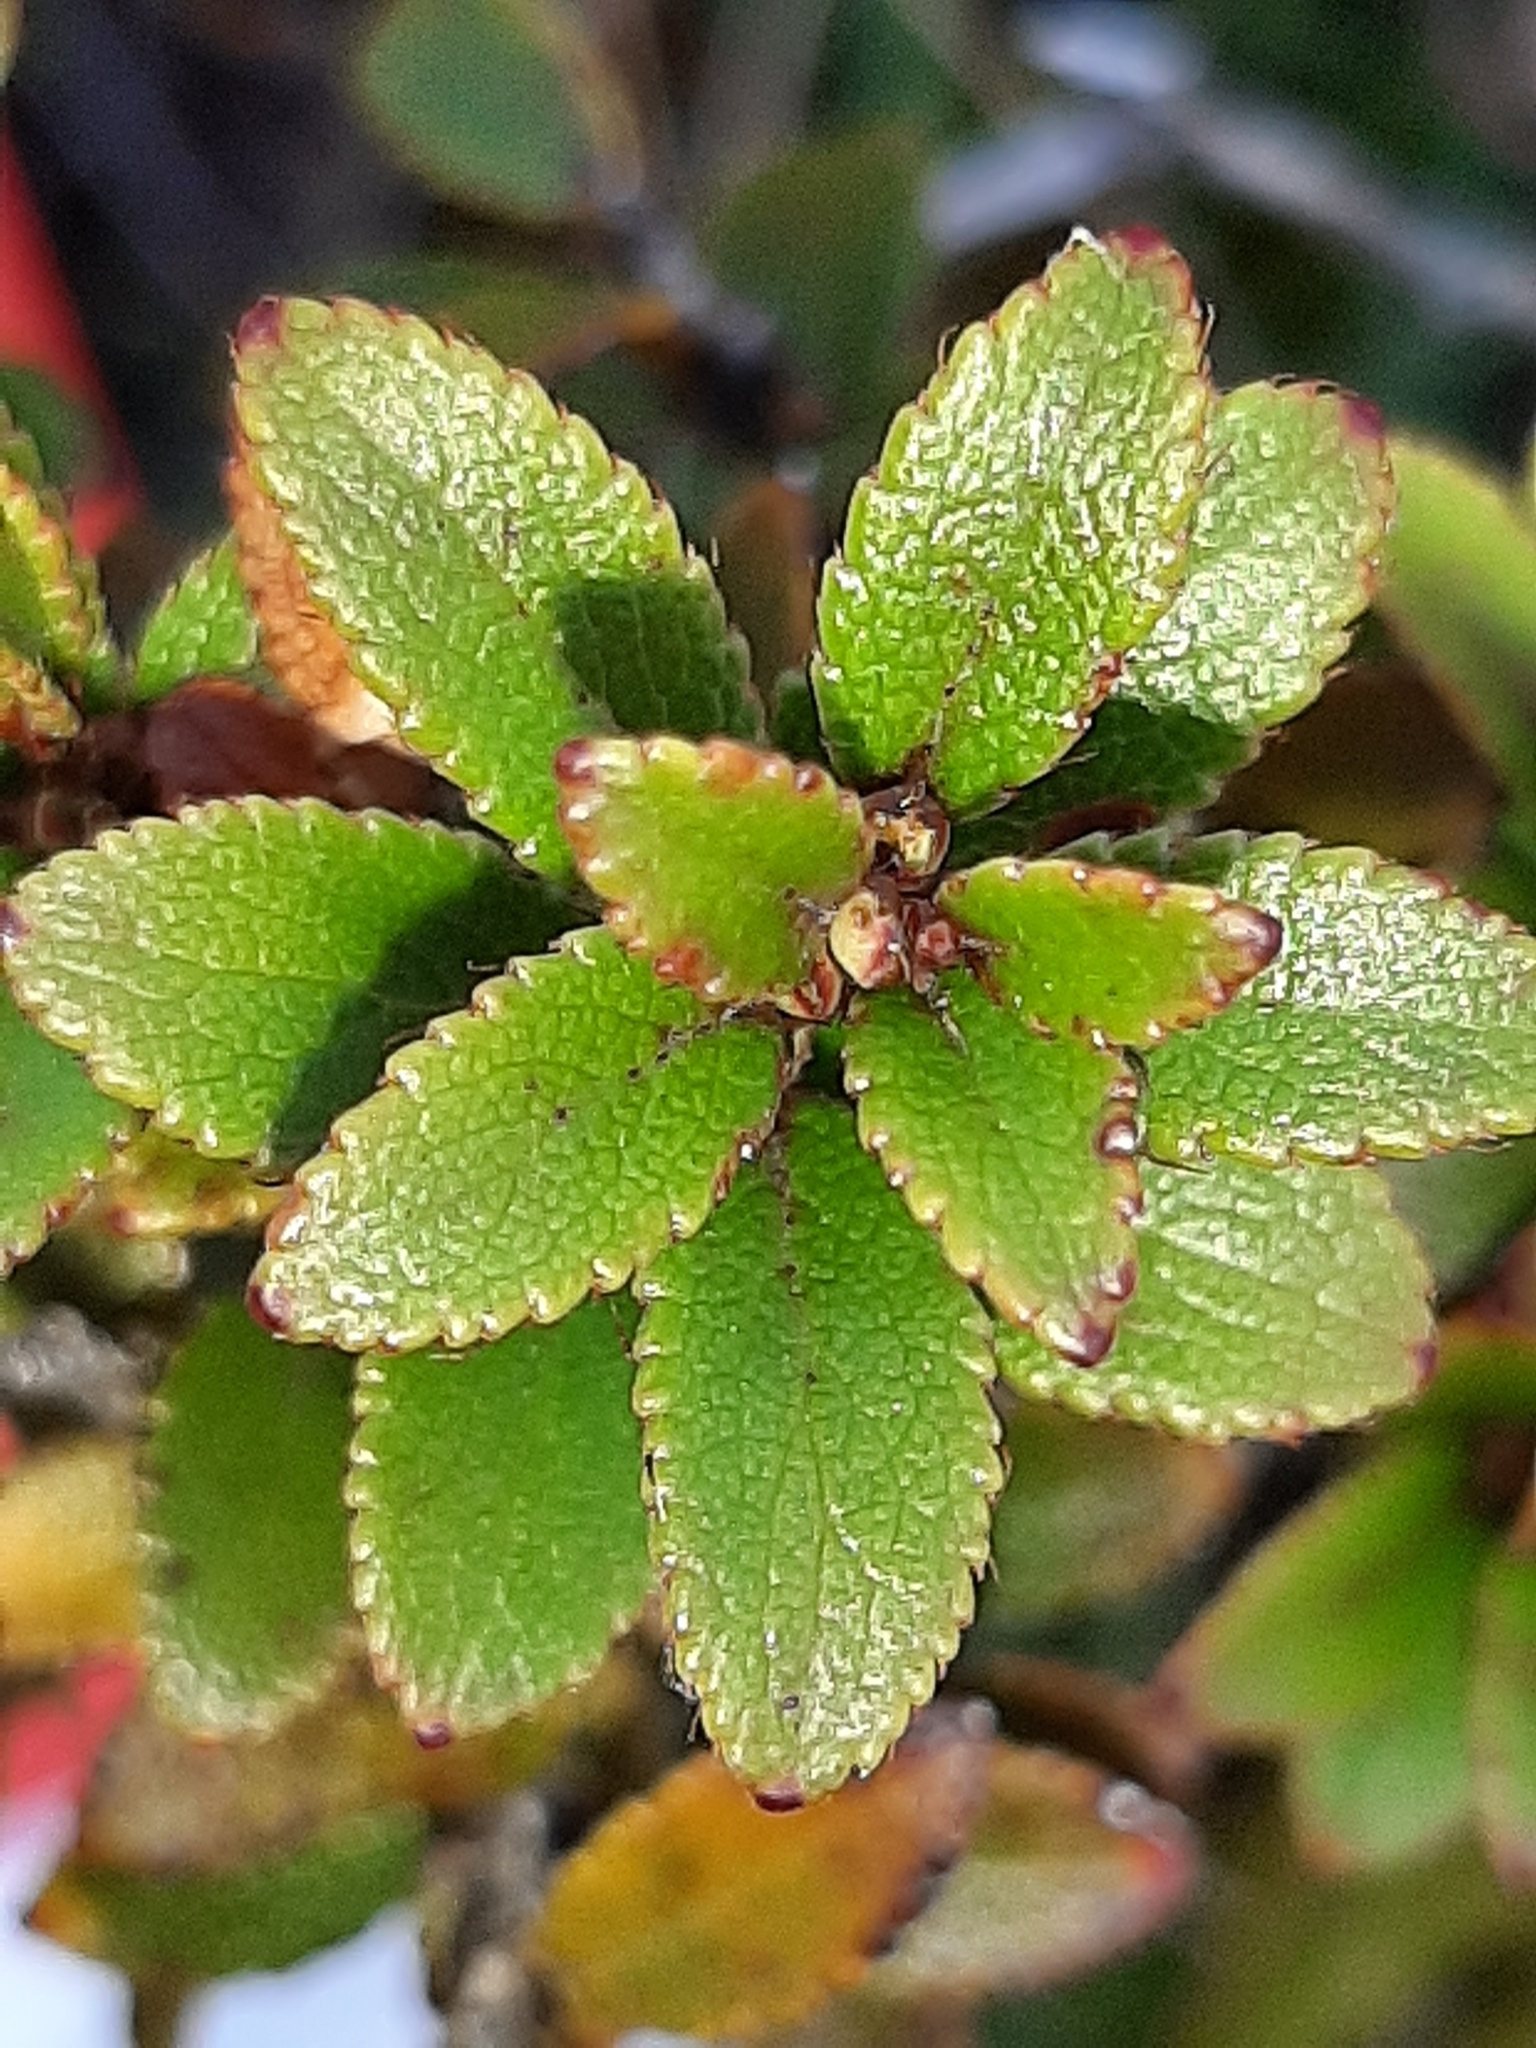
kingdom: Plantae
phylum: Tracheophyta
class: Magnoliopsida
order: Ericales
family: Ericaceae
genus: Gaultheria
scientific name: Gaultheria crassa
